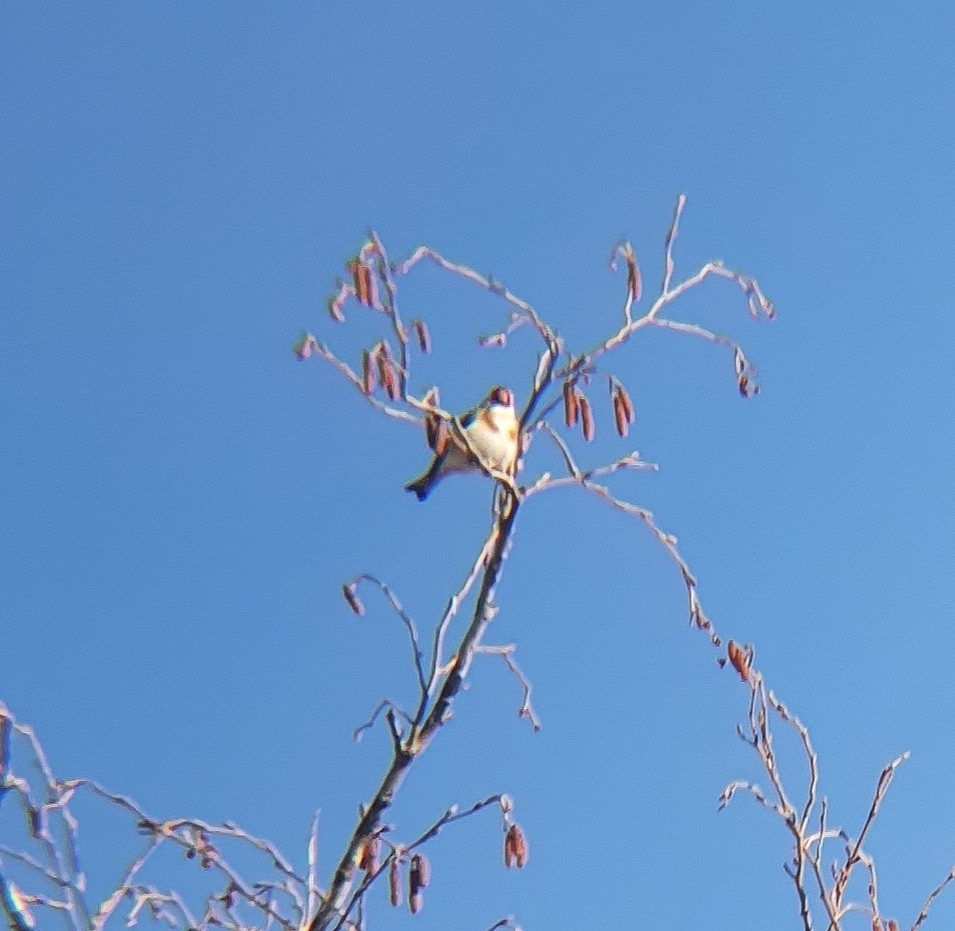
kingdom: Animalia
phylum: Chordata
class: Aves
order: Passeriformes
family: Fringillidae
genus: Carduelis
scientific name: Carduelis carduelis
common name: European goldfinch
